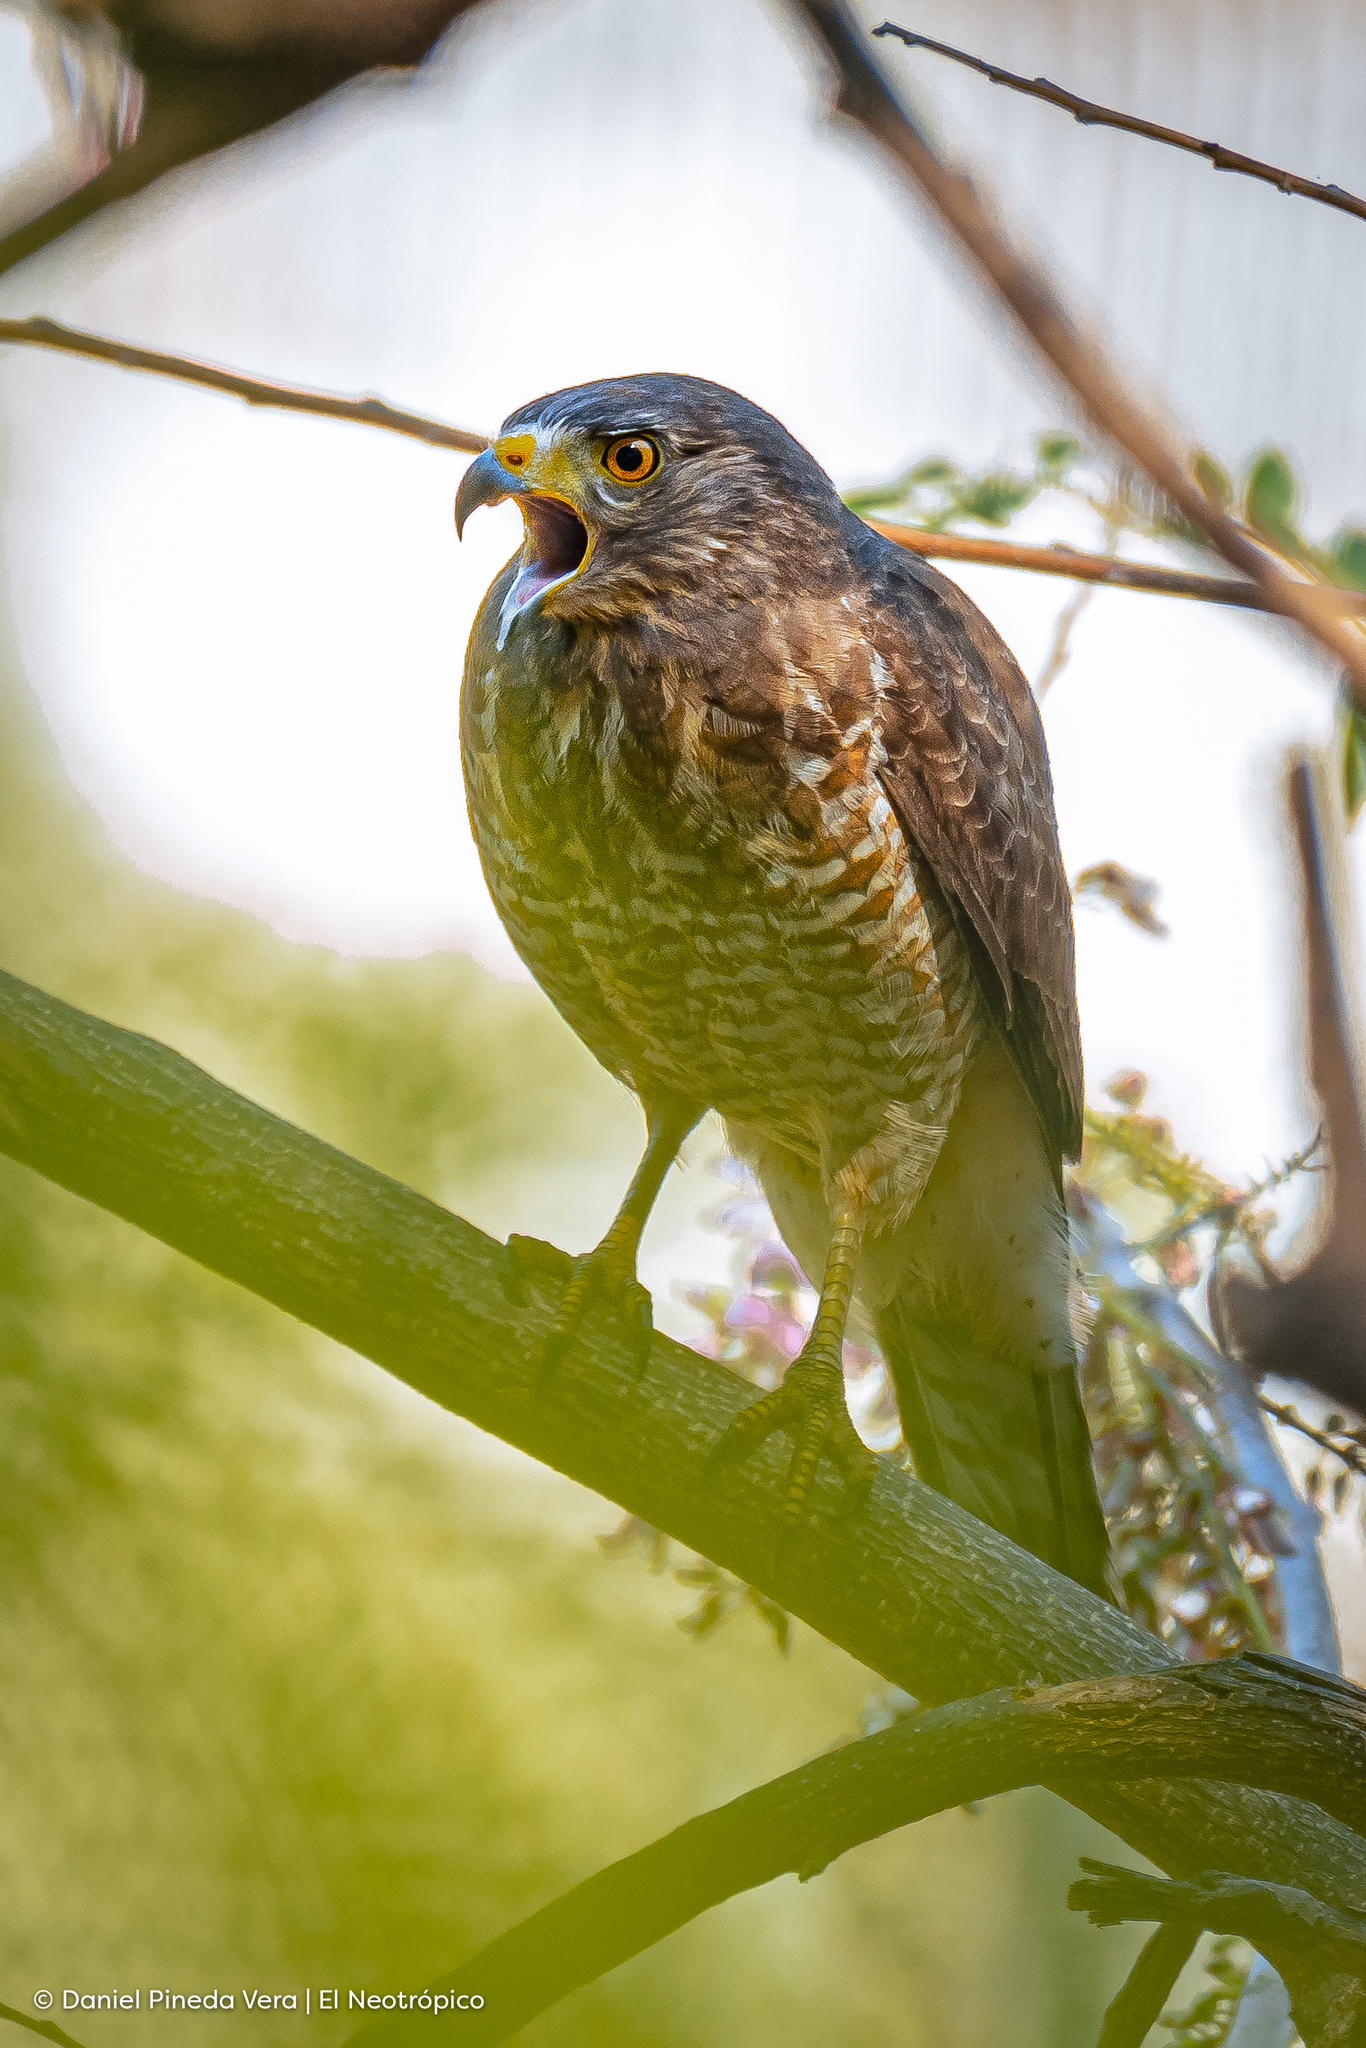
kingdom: Animalia
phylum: Chordata
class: Aves
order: Accipitriformes
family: Accipitridae
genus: Rupornis
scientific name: Rupornis magnirostris
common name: Roadside hawk
